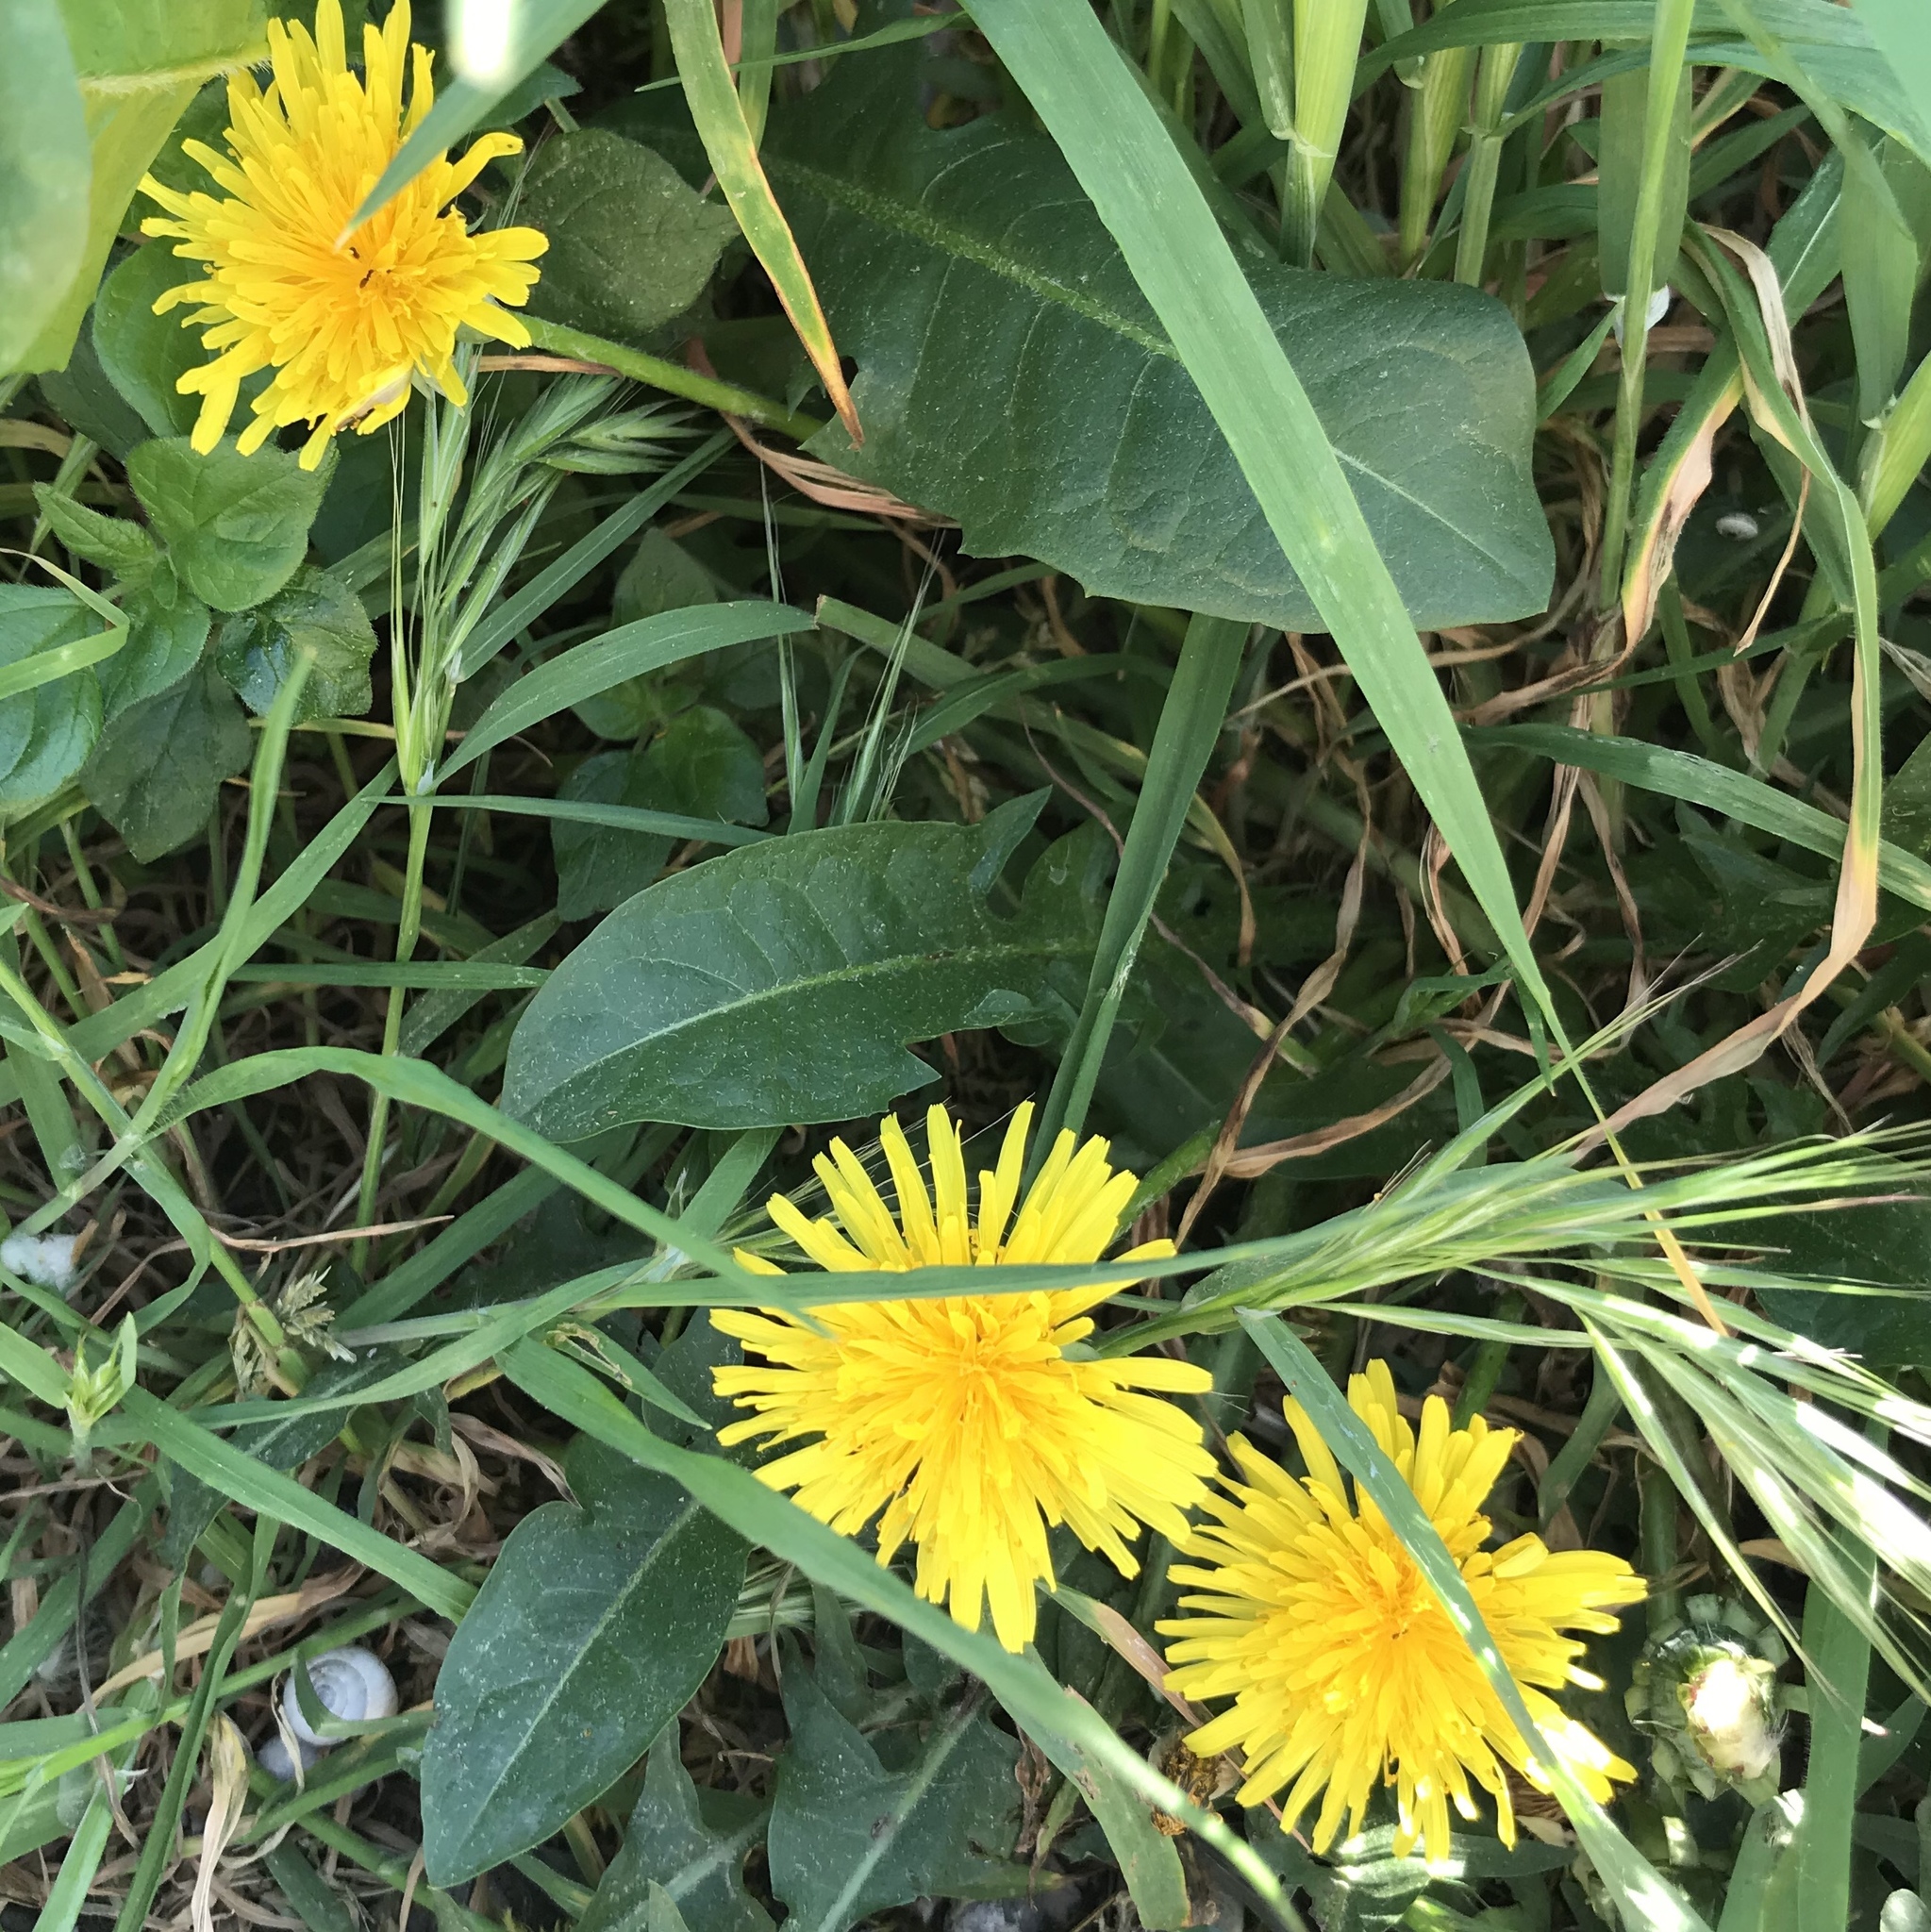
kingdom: Plantae
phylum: Tracheophyta
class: Magnoliopsida
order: Asterales
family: Asteraceae
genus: Taraxacum
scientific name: Taraxacum officinale
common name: Common dandelion
